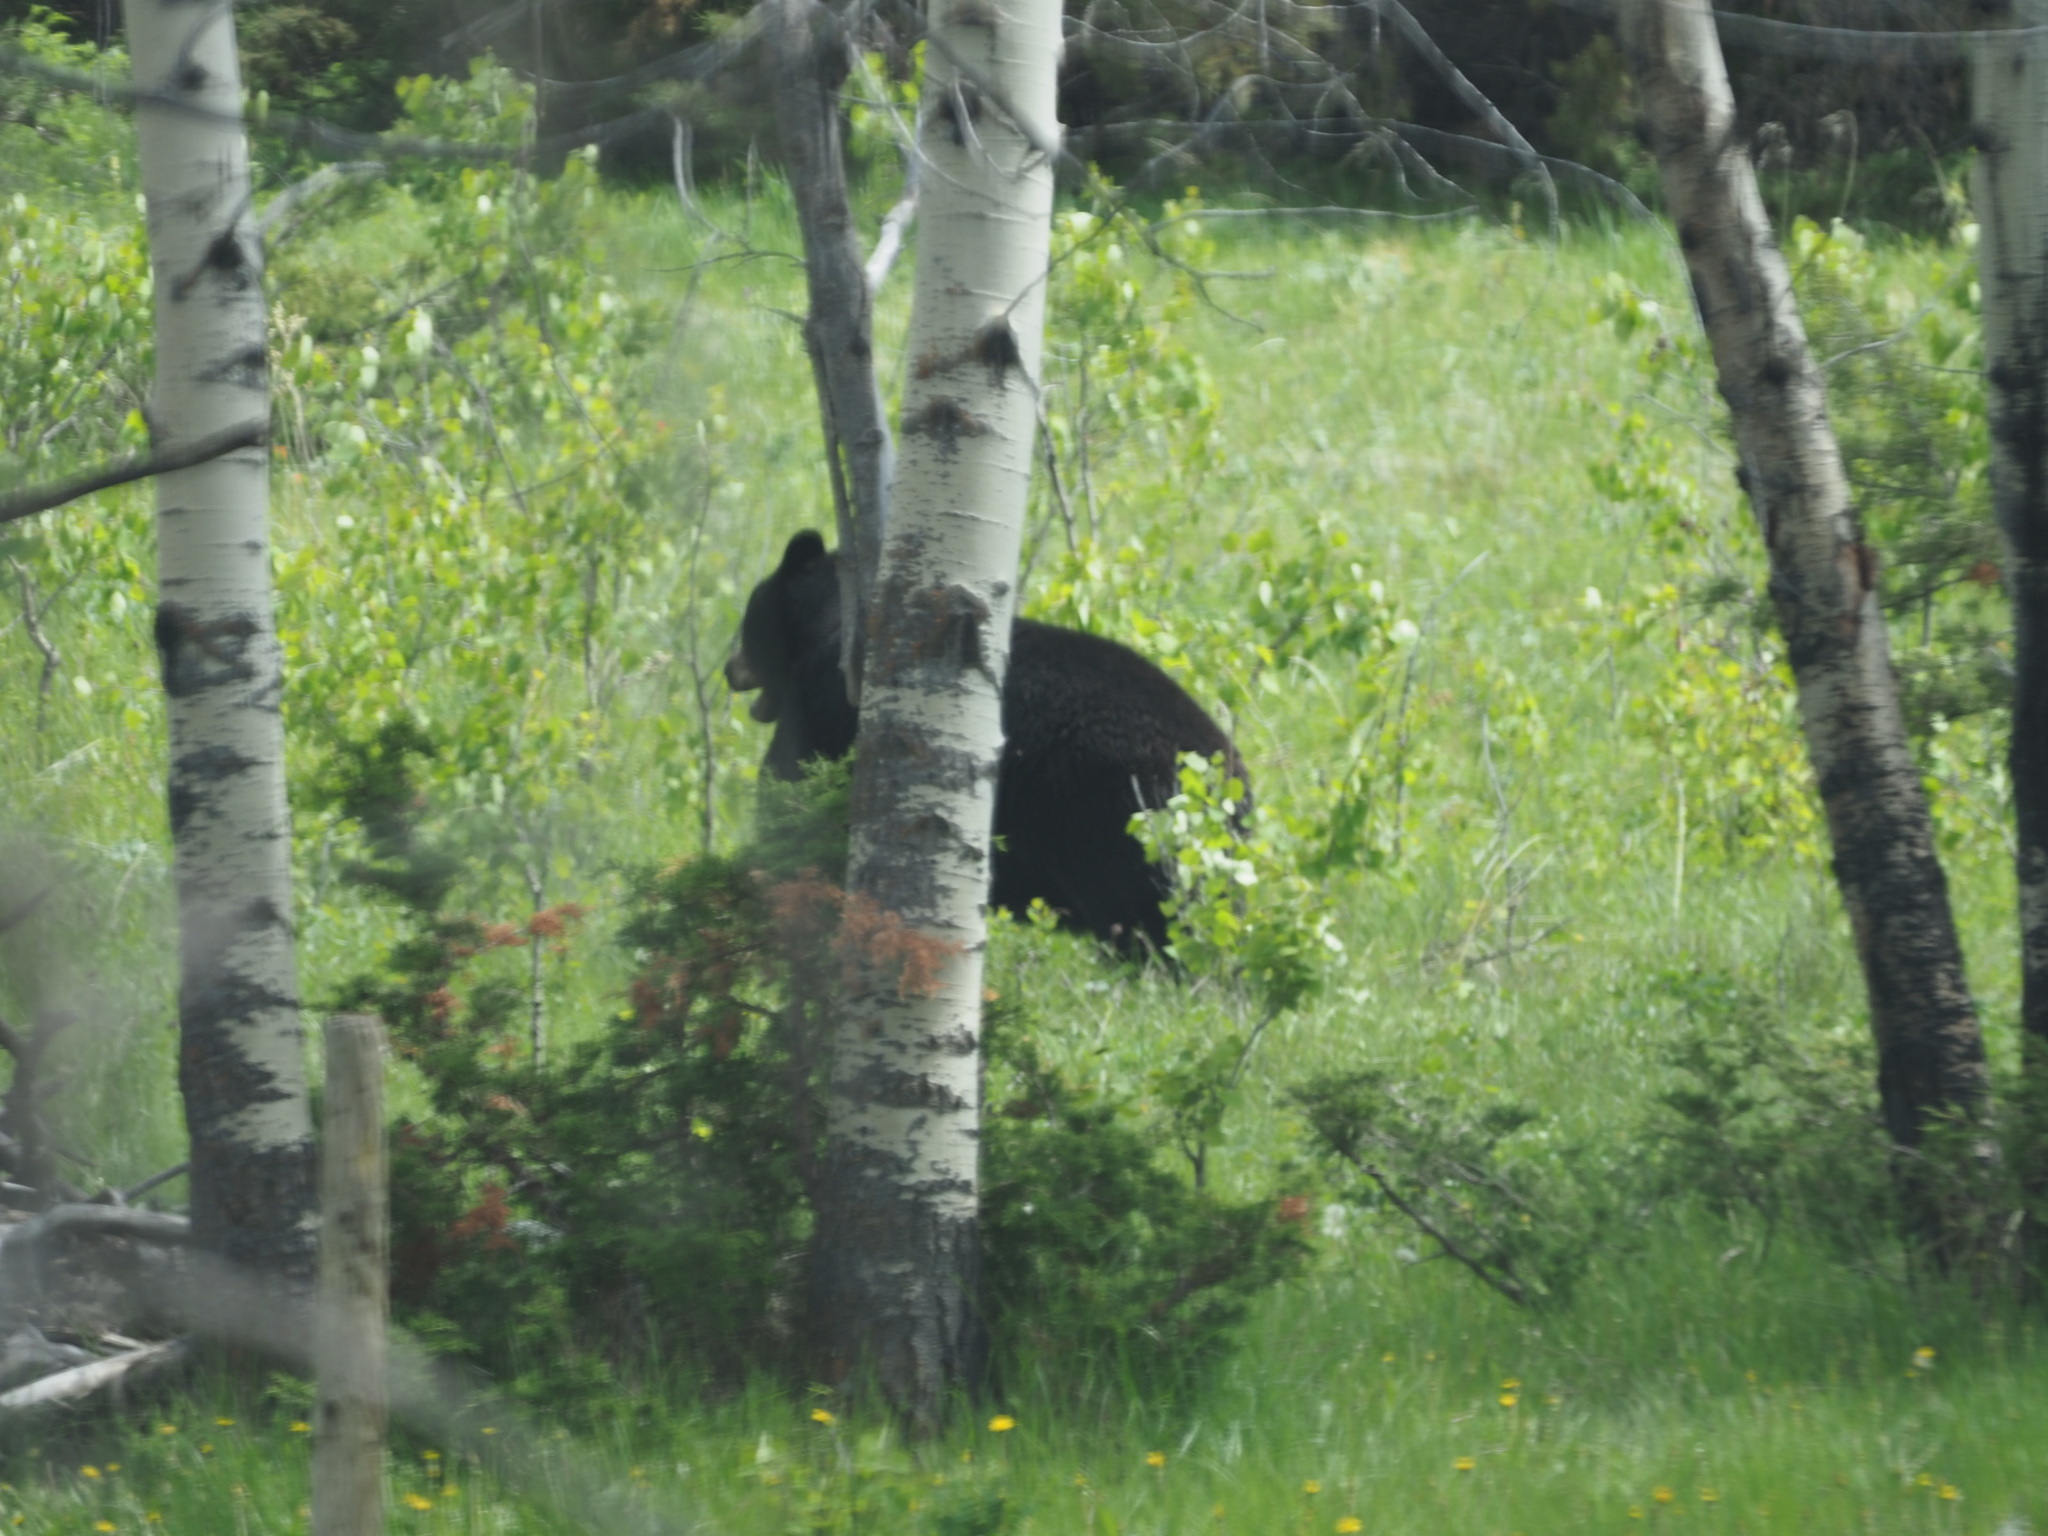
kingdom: Animalia
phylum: Chordata
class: Mammalia
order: Carnivora
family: Ursidae
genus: Ursus
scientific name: Ursus americanus
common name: American black bear
